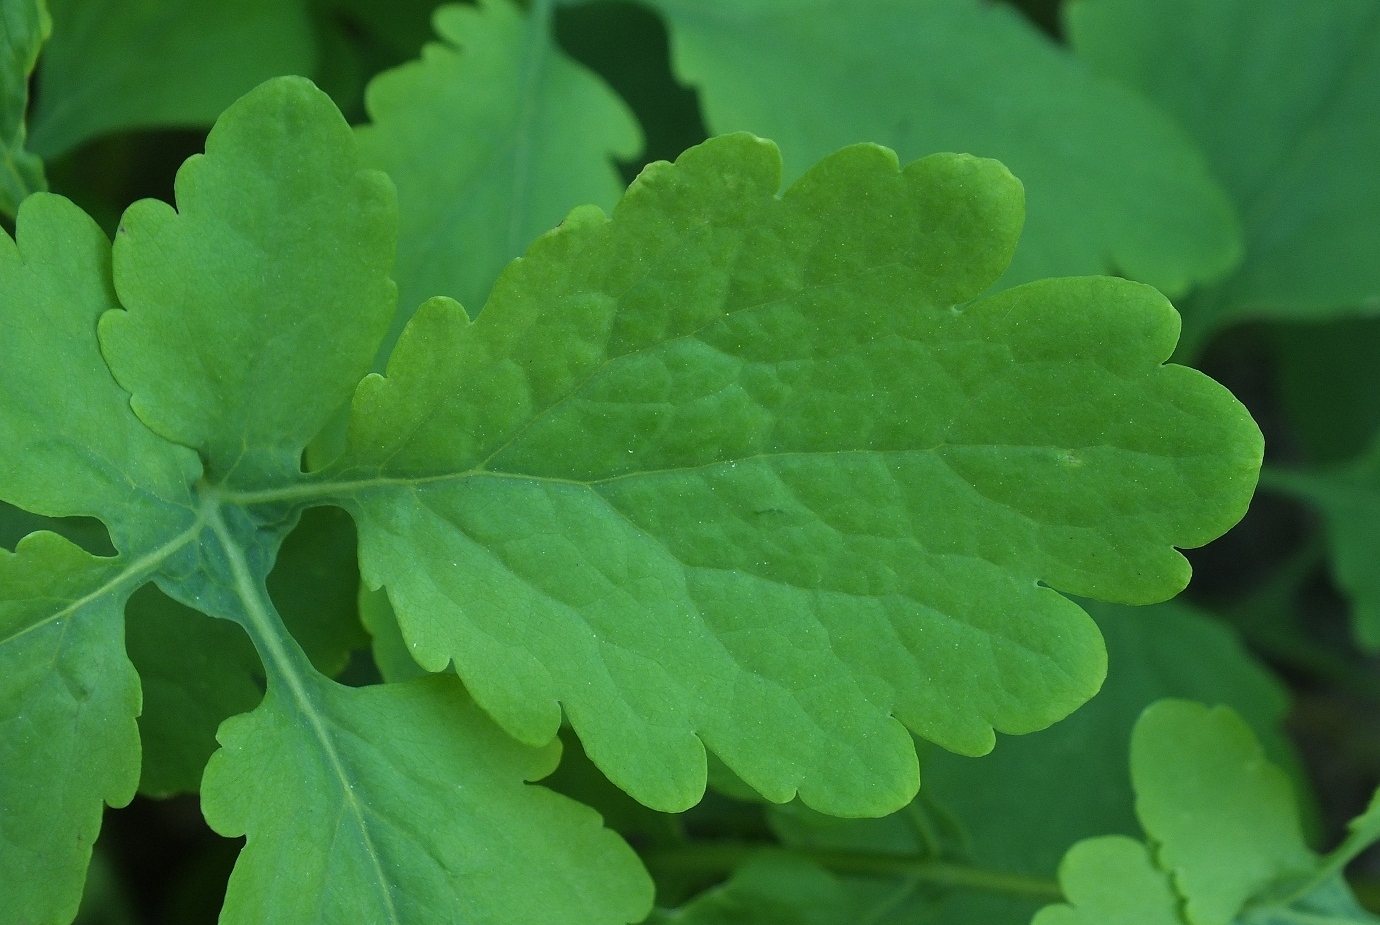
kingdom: Plantae
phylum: Tracheophyta
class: Magnoliopsida
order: Ranunculales
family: Papaveraceae
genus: Chelidonium
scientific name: Chelidonium majus
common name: Greater celandine
